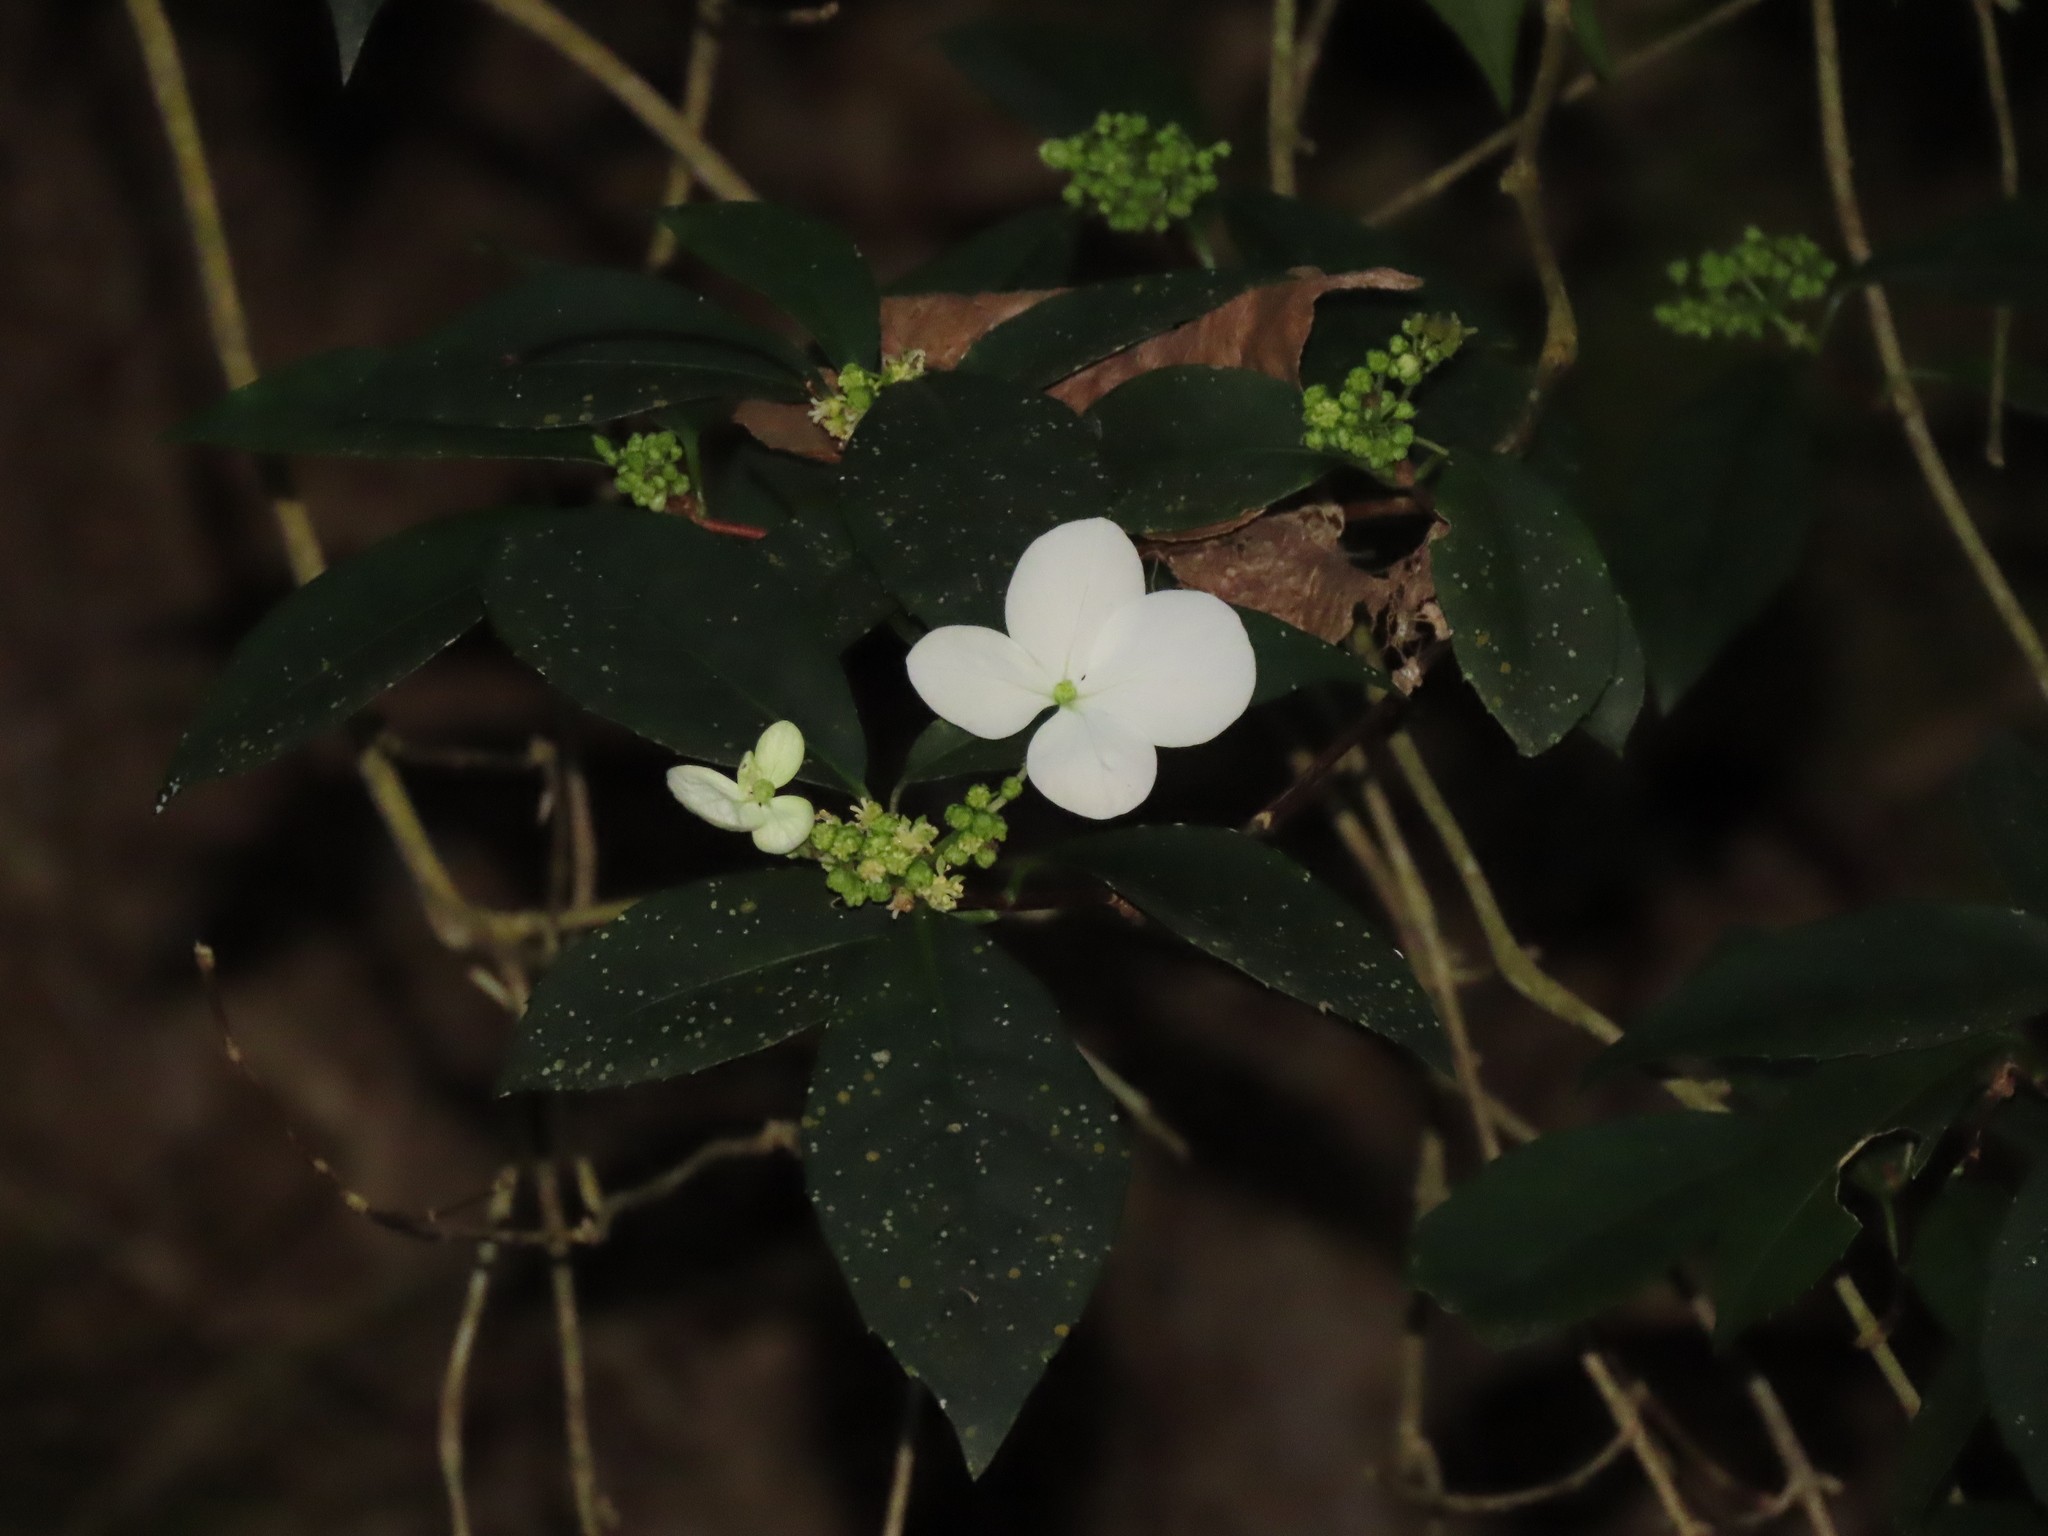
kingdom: Plantae
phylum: Tracheophyta
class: Magnoliopsida
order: Cornales
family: Hydrangeaceae
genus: Hydrangea
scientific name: Hydrangea chinensis
